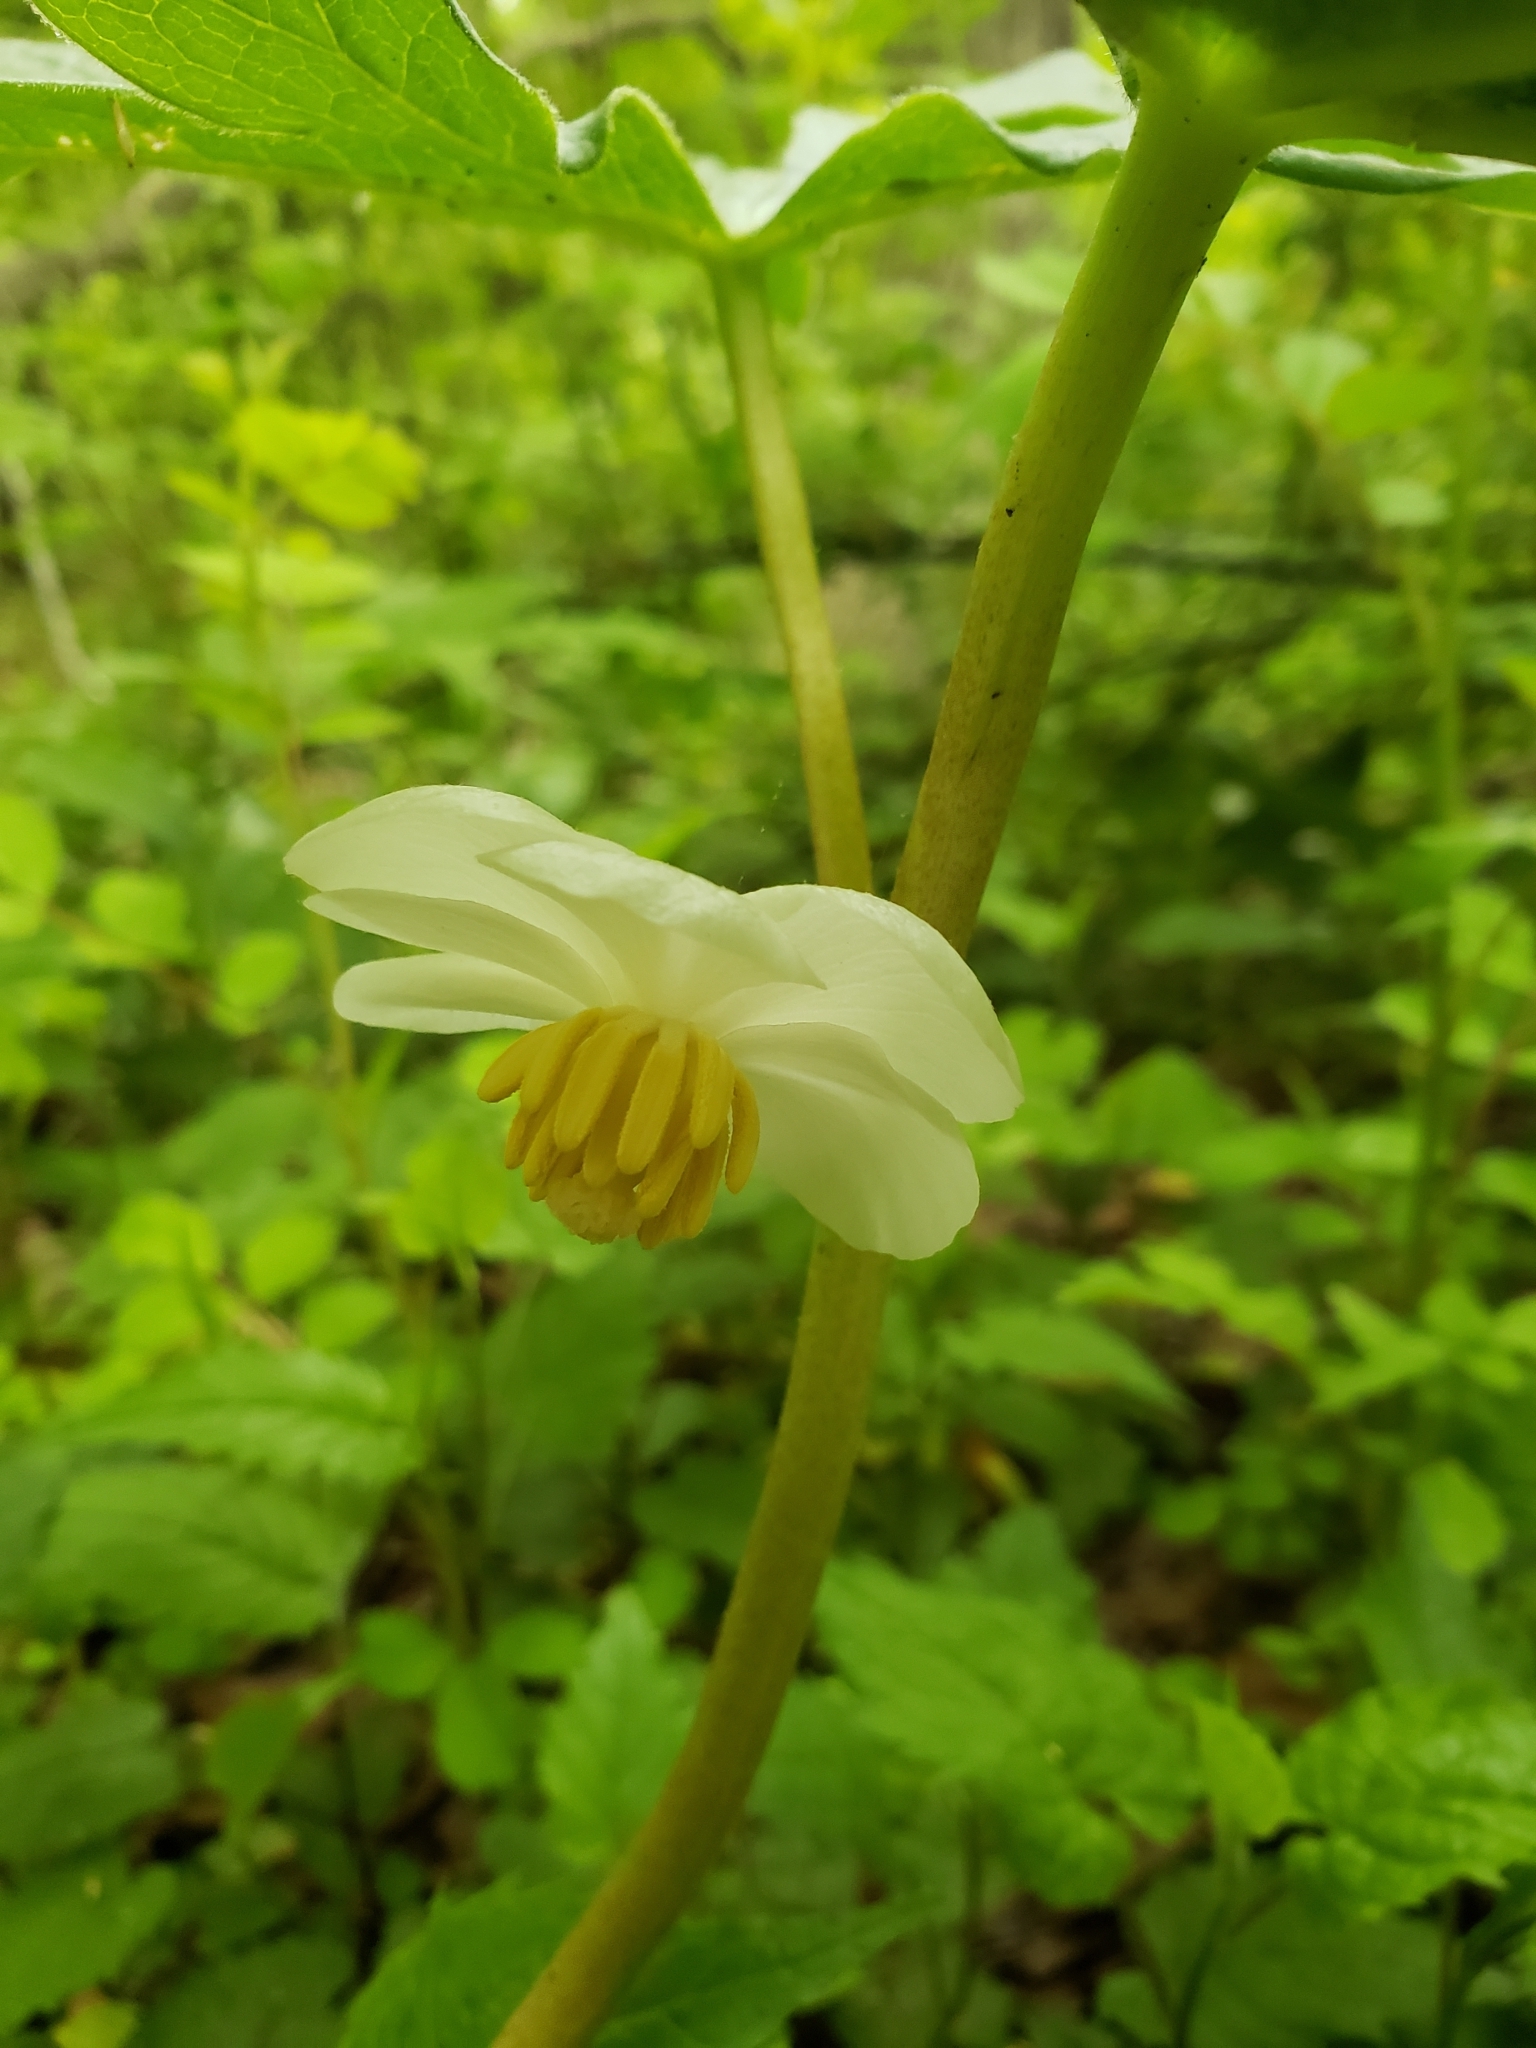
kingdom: Plantae
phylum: Tracheophyta
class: Magnoliopsida
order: Ranunculales
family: Berberidaceae
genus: Podophyllum
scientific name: Podophyllum peltatum
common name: Wild mandrake
